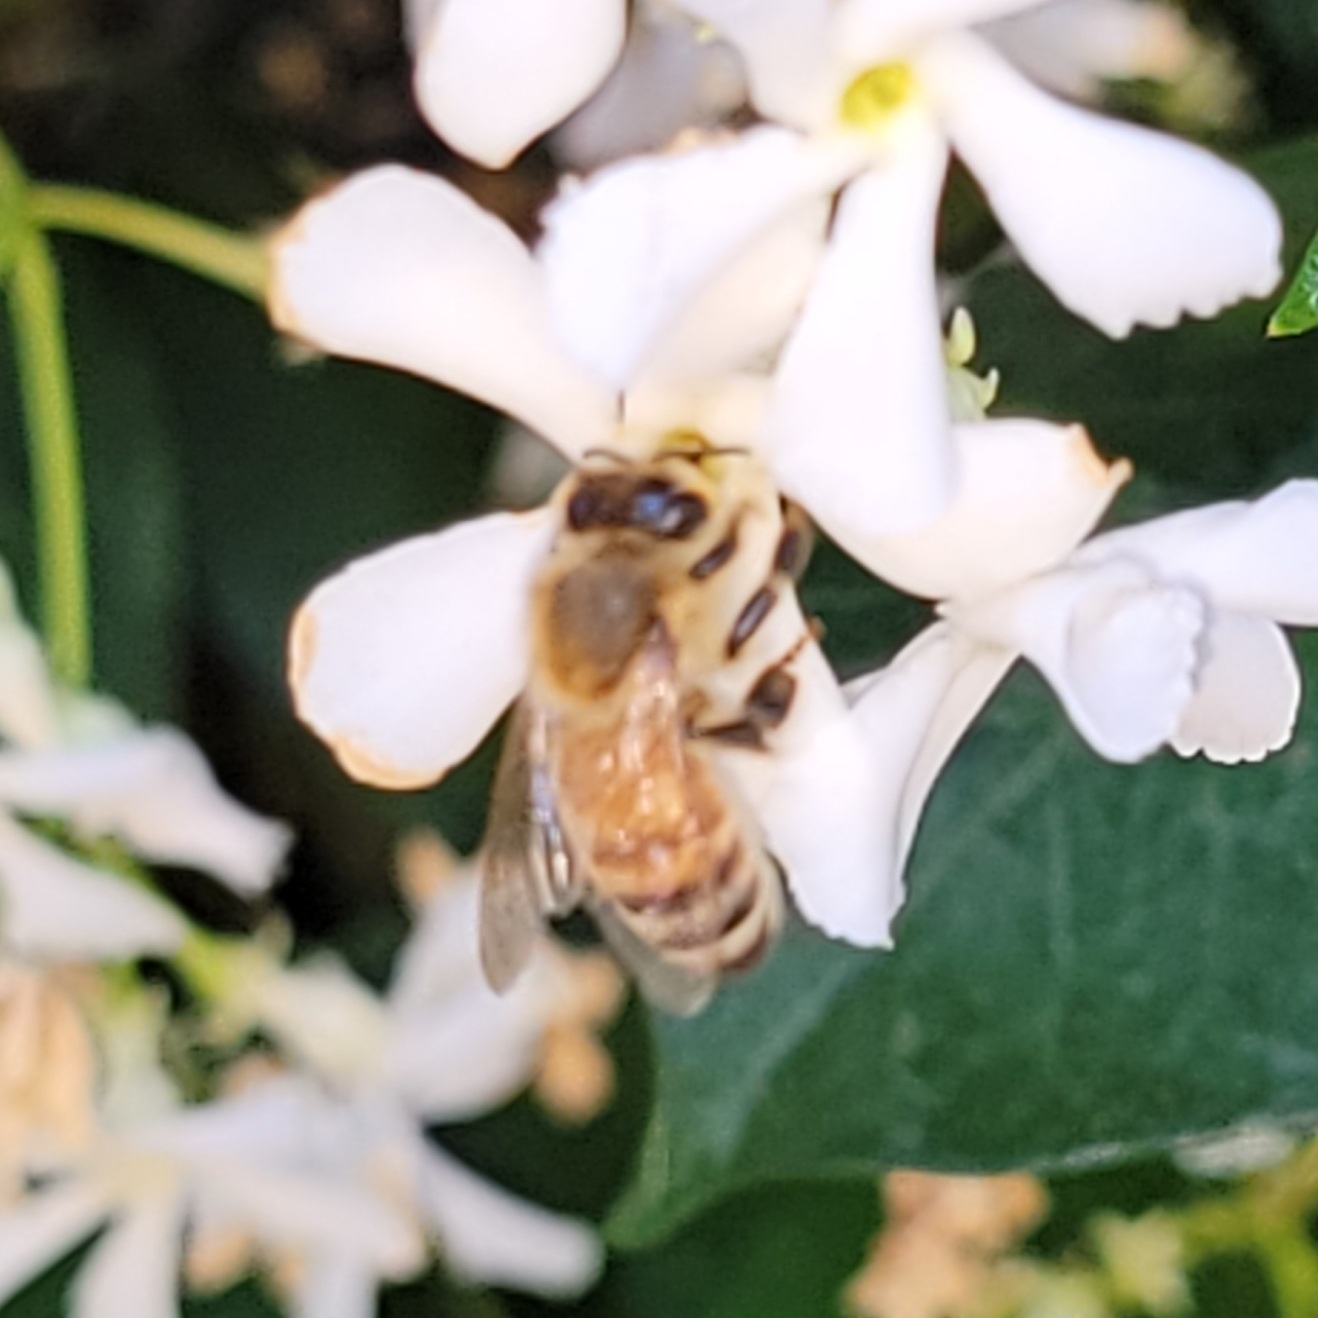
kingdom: Animalia
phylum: Arthropoda
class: Insecta
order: Hymenoptera
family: Apidae
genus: Apis
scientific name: Apis mellifera
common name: Honey bee
